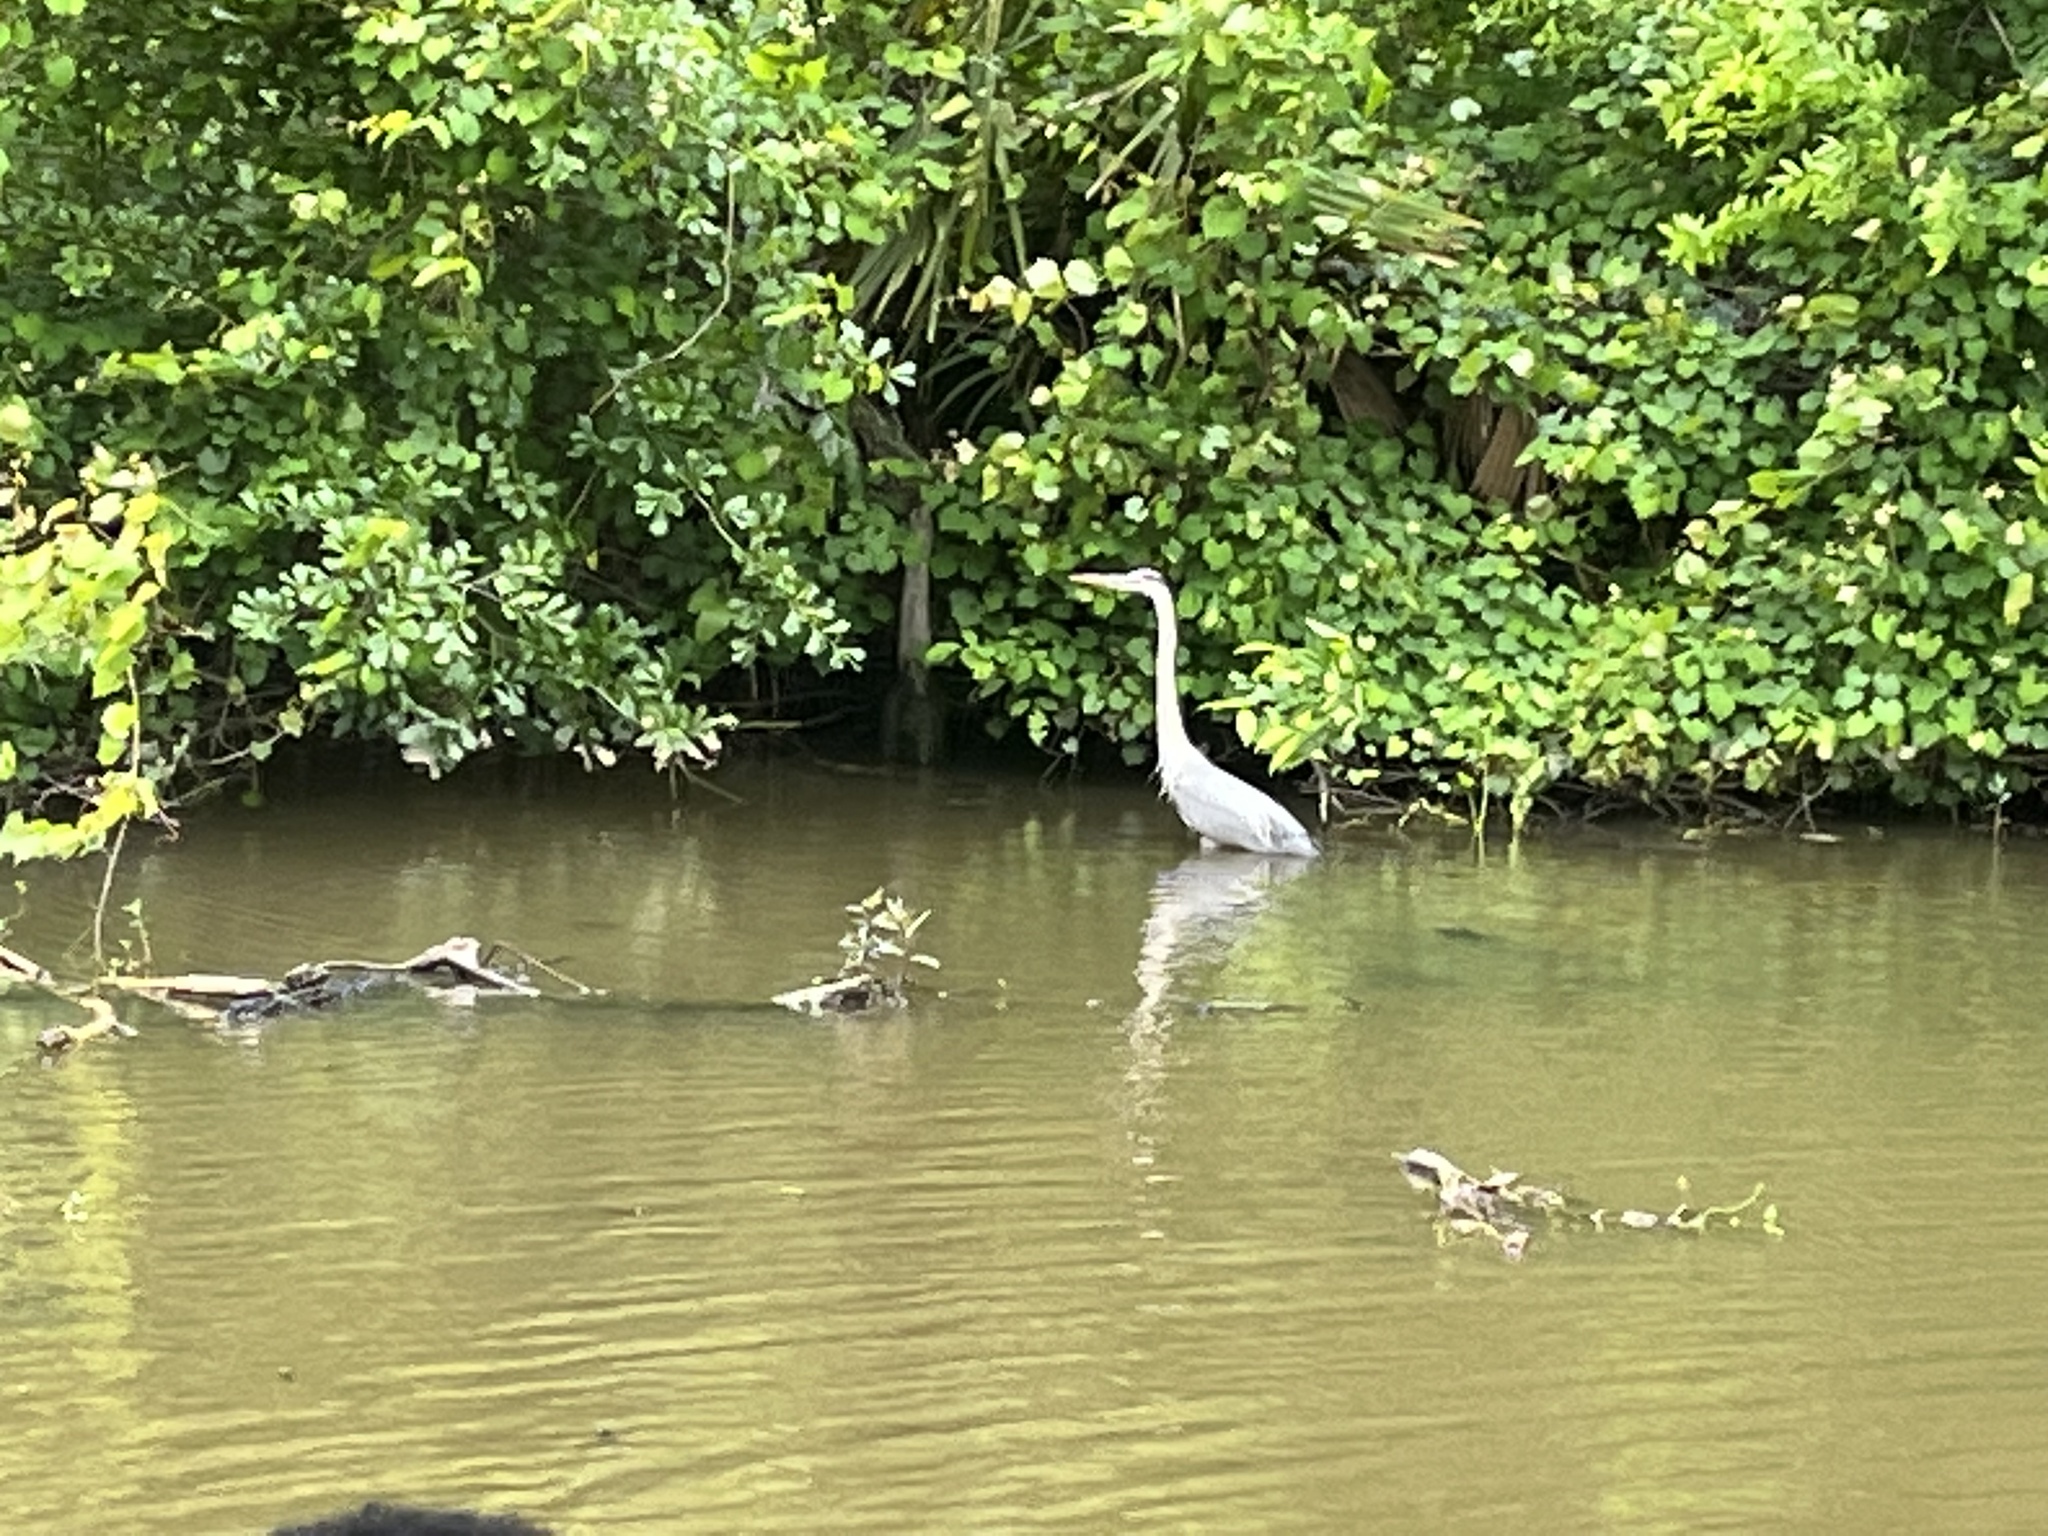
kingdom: Animalia
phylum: Chordata
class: Aves
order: Pelecaniformes
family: Ardeidae
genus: Ardea
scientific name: Ardea herodias
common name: Great blue heron
